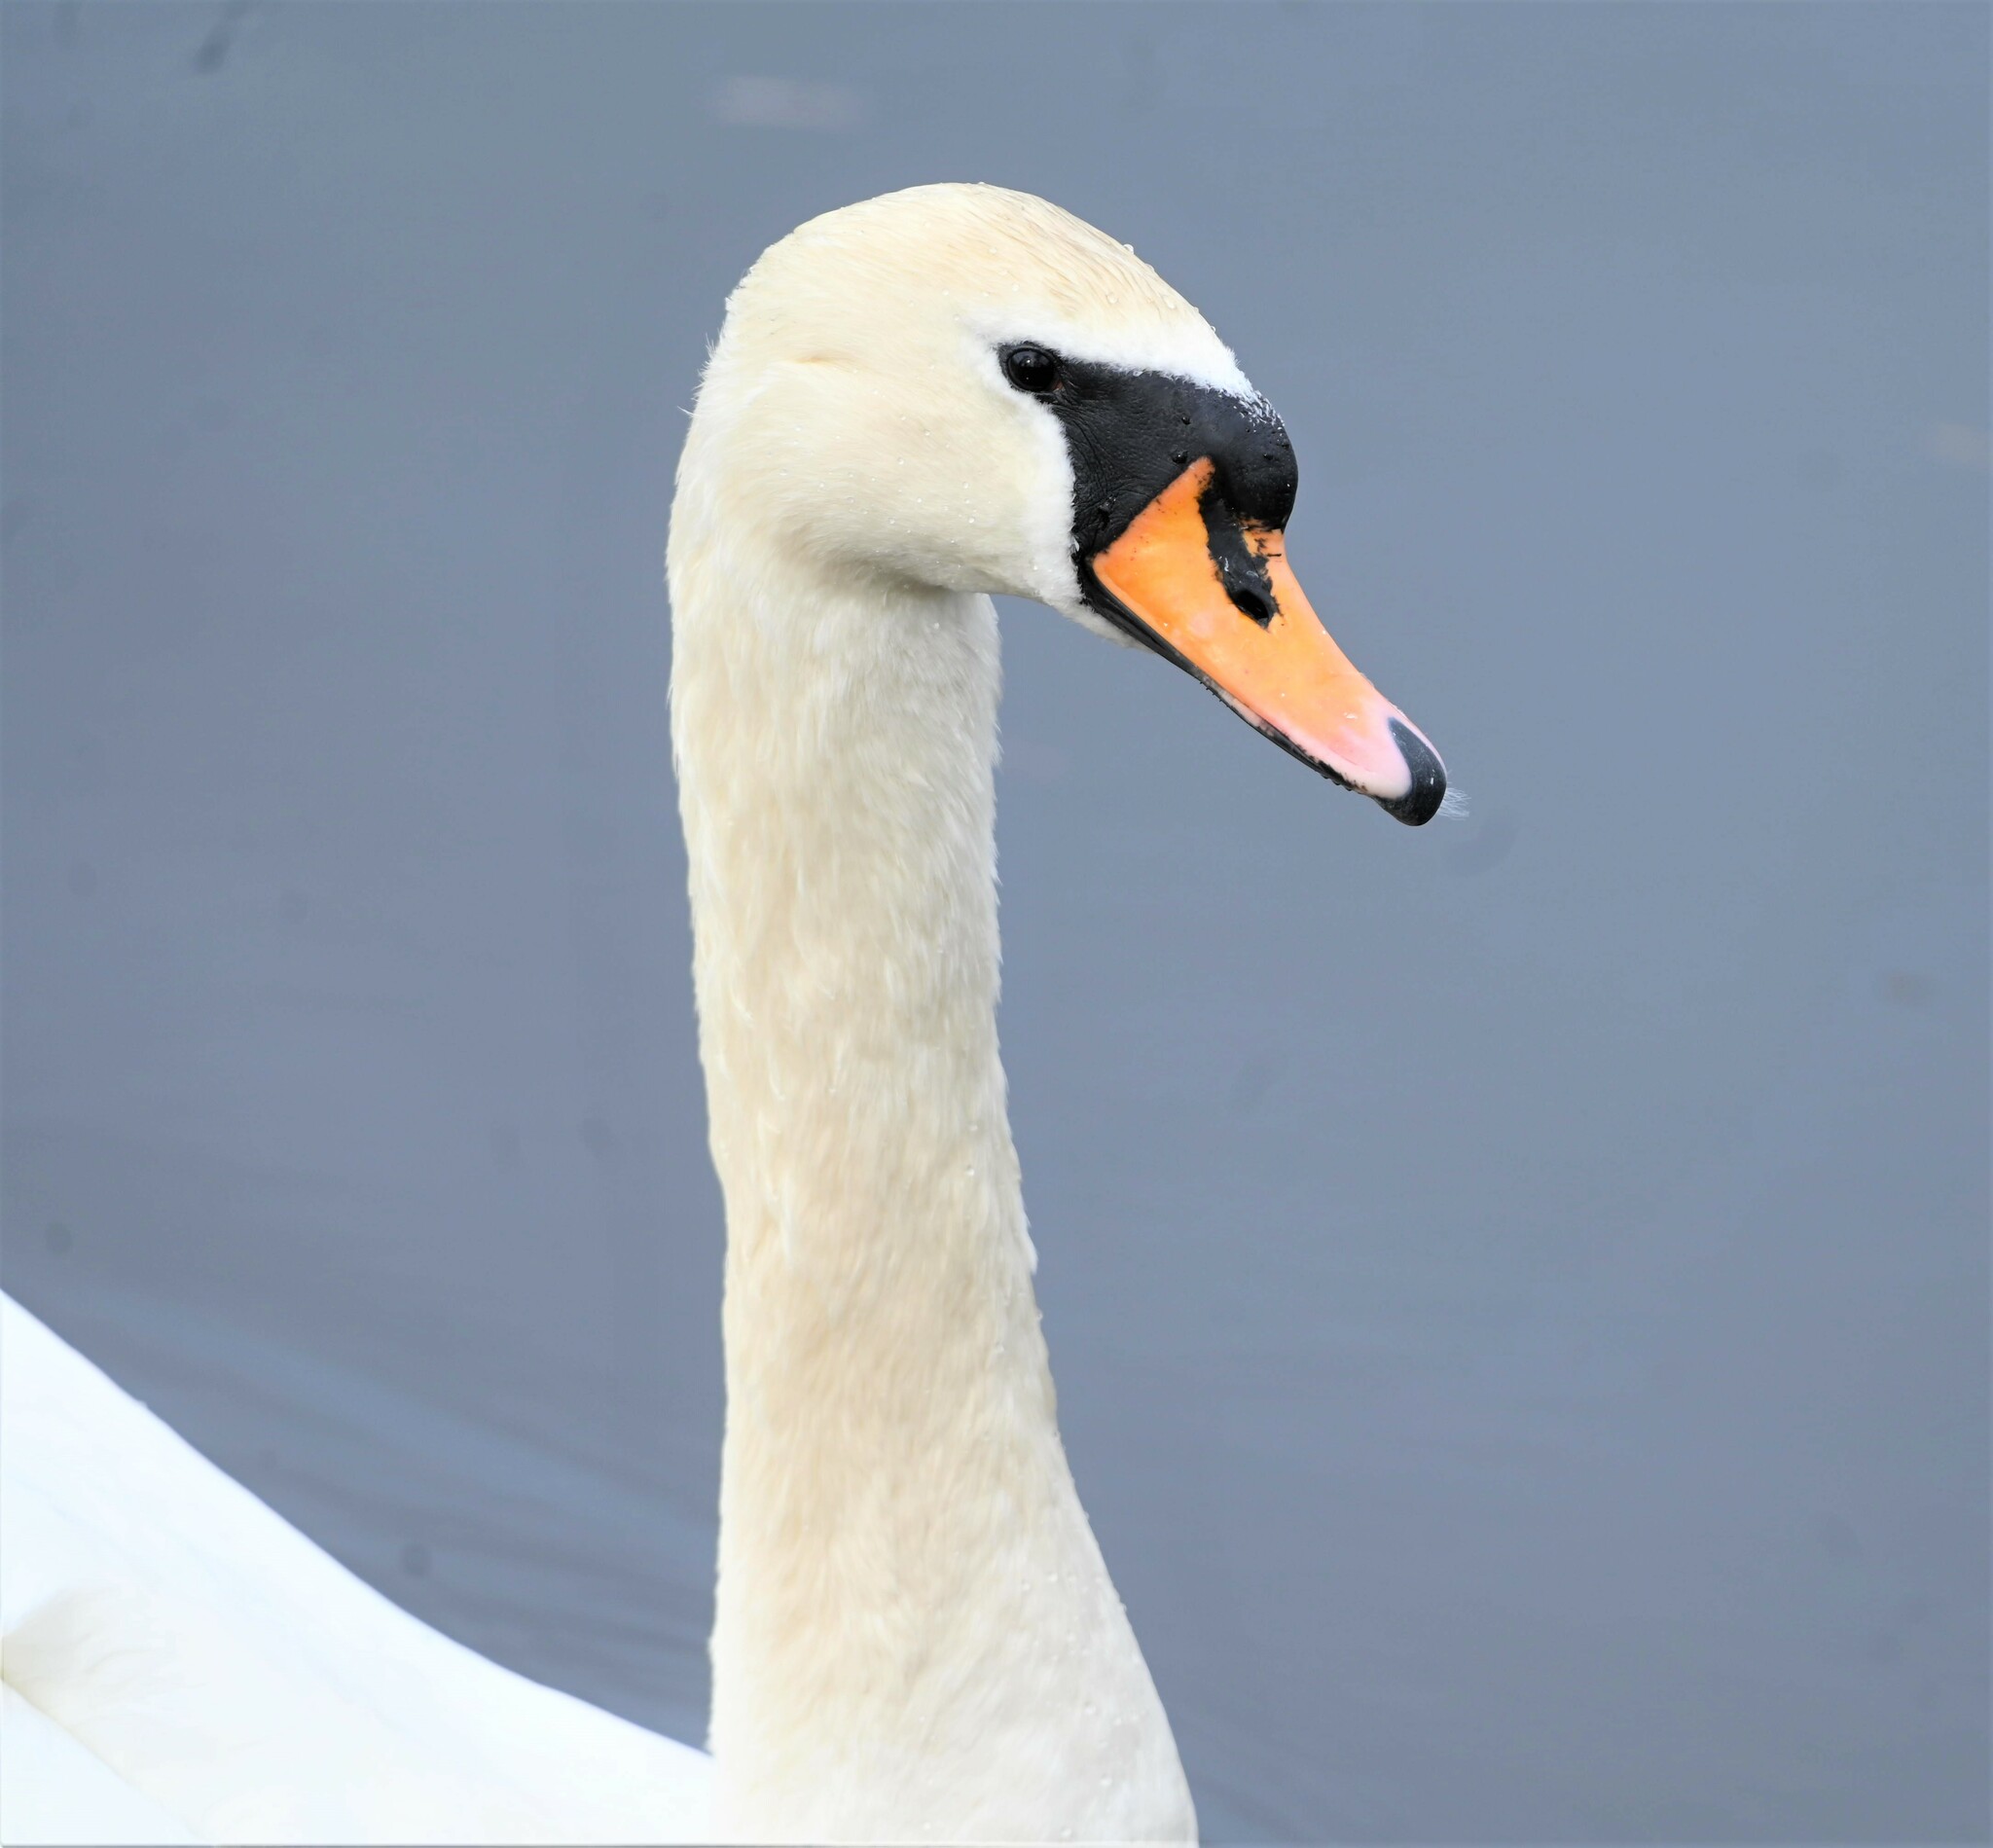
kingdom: Animalia
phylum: Chordata
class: Aves
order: Anseriformes
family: Anatidae
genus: Cygnus
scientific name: Cygnus olor
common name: Mute swan
